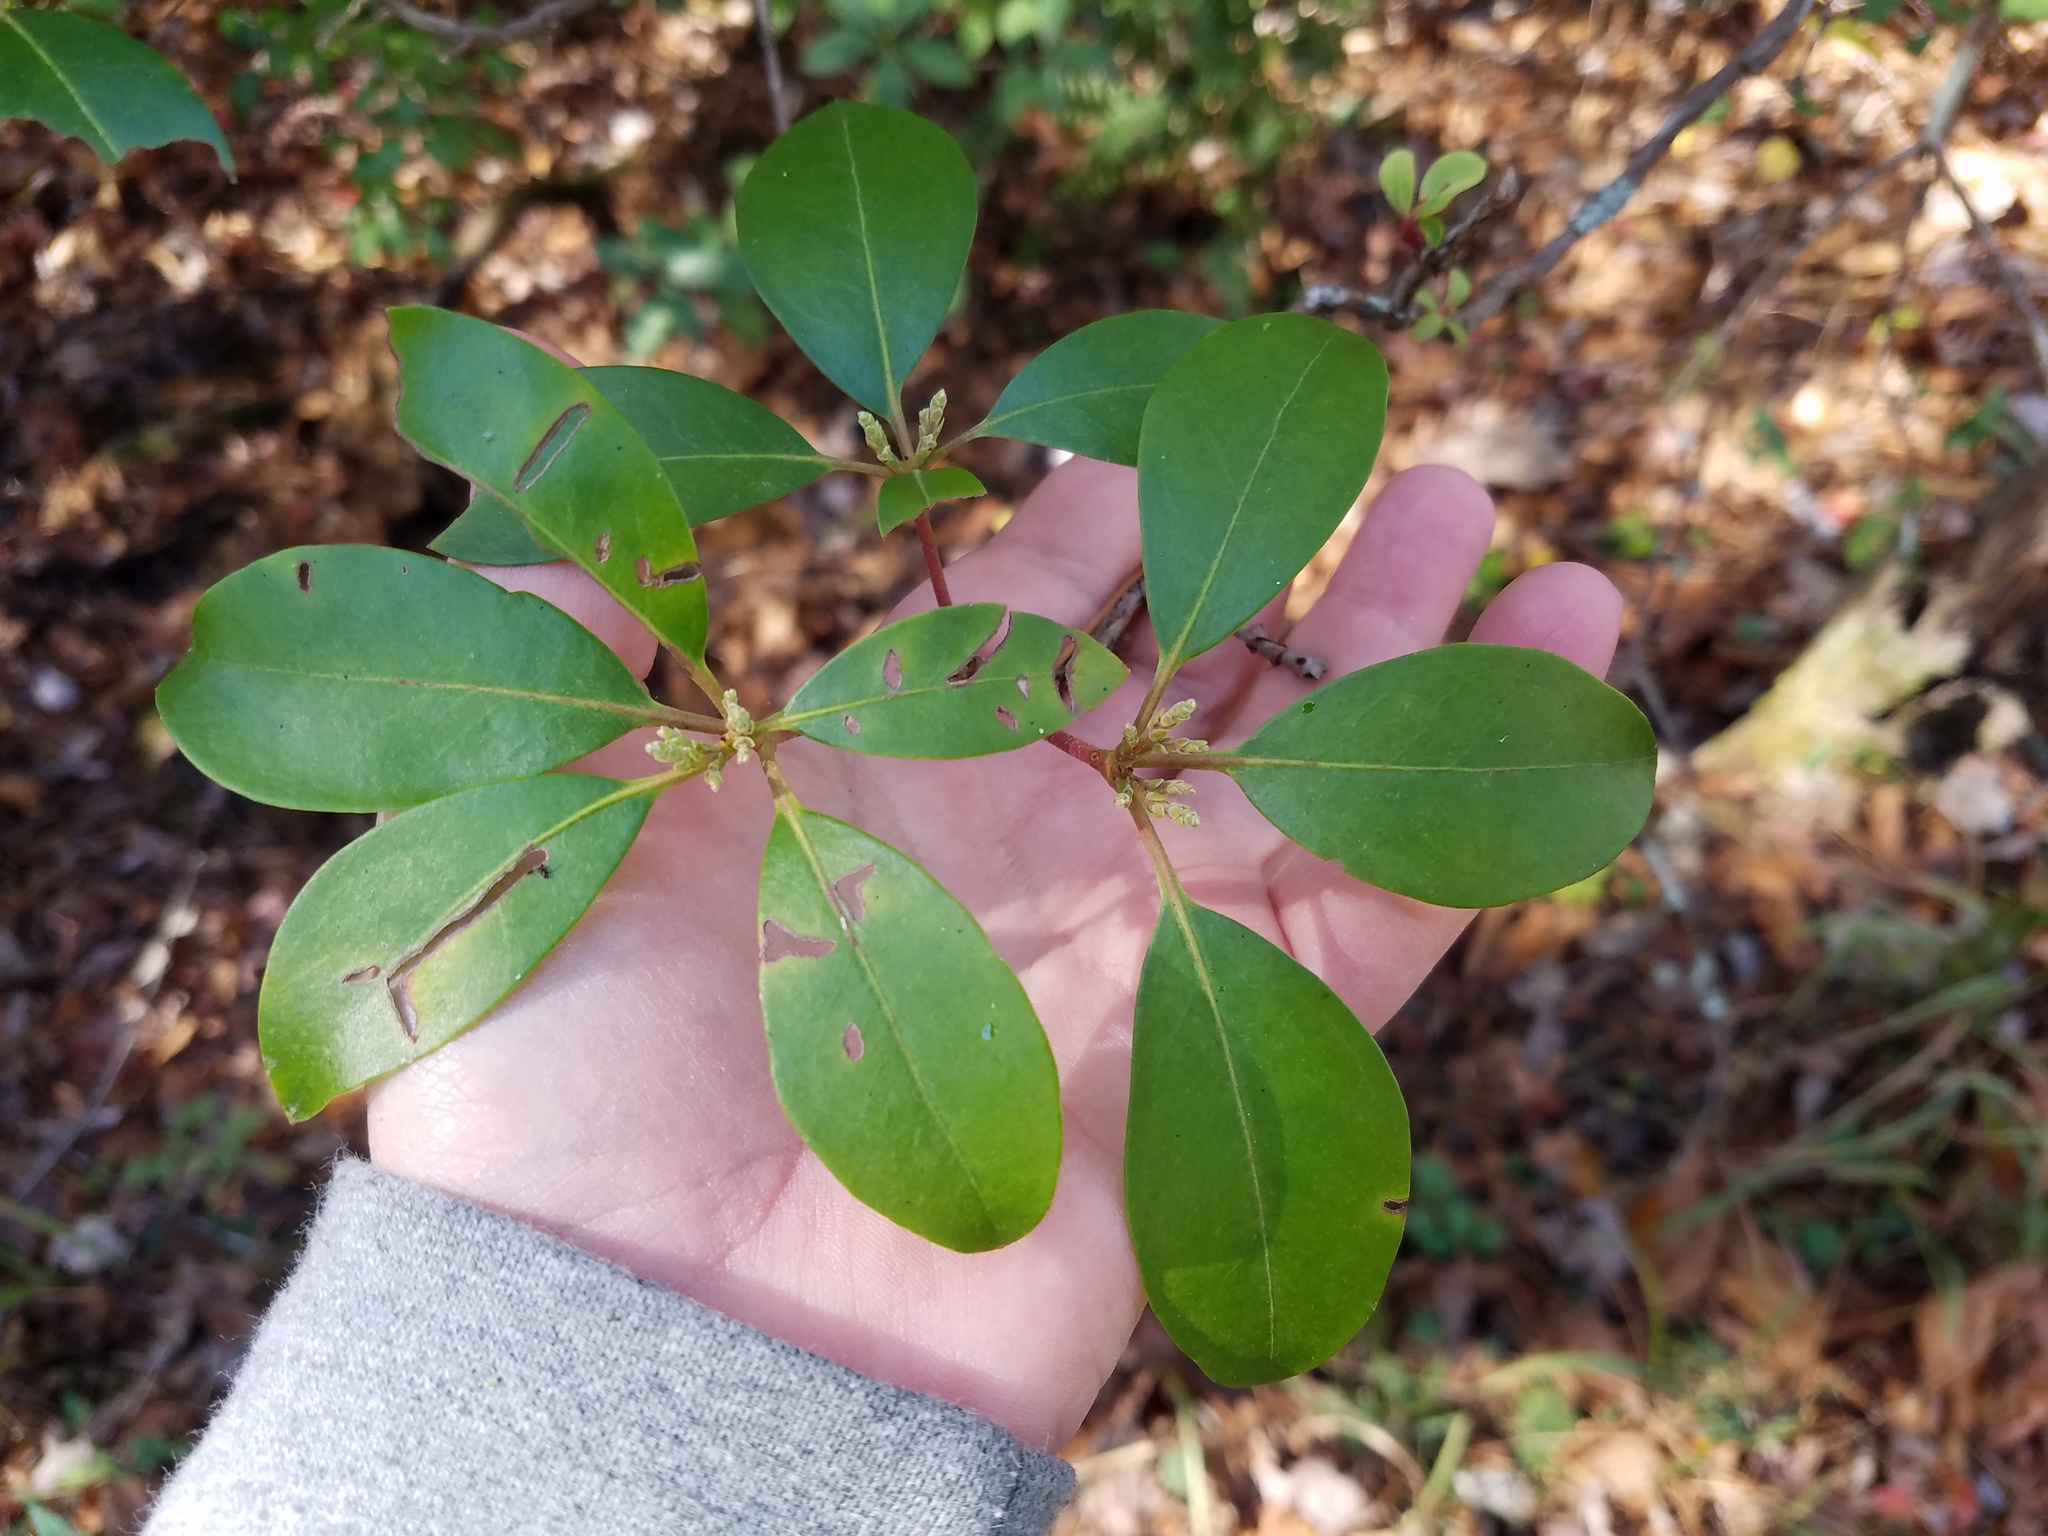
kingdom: Plantae
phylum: Tracheophyta
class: Magnoliopsida
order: Ericales
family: Ericaceae
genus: Kalmia
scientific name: Kalmia latifolia
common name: Mountain-laurel
